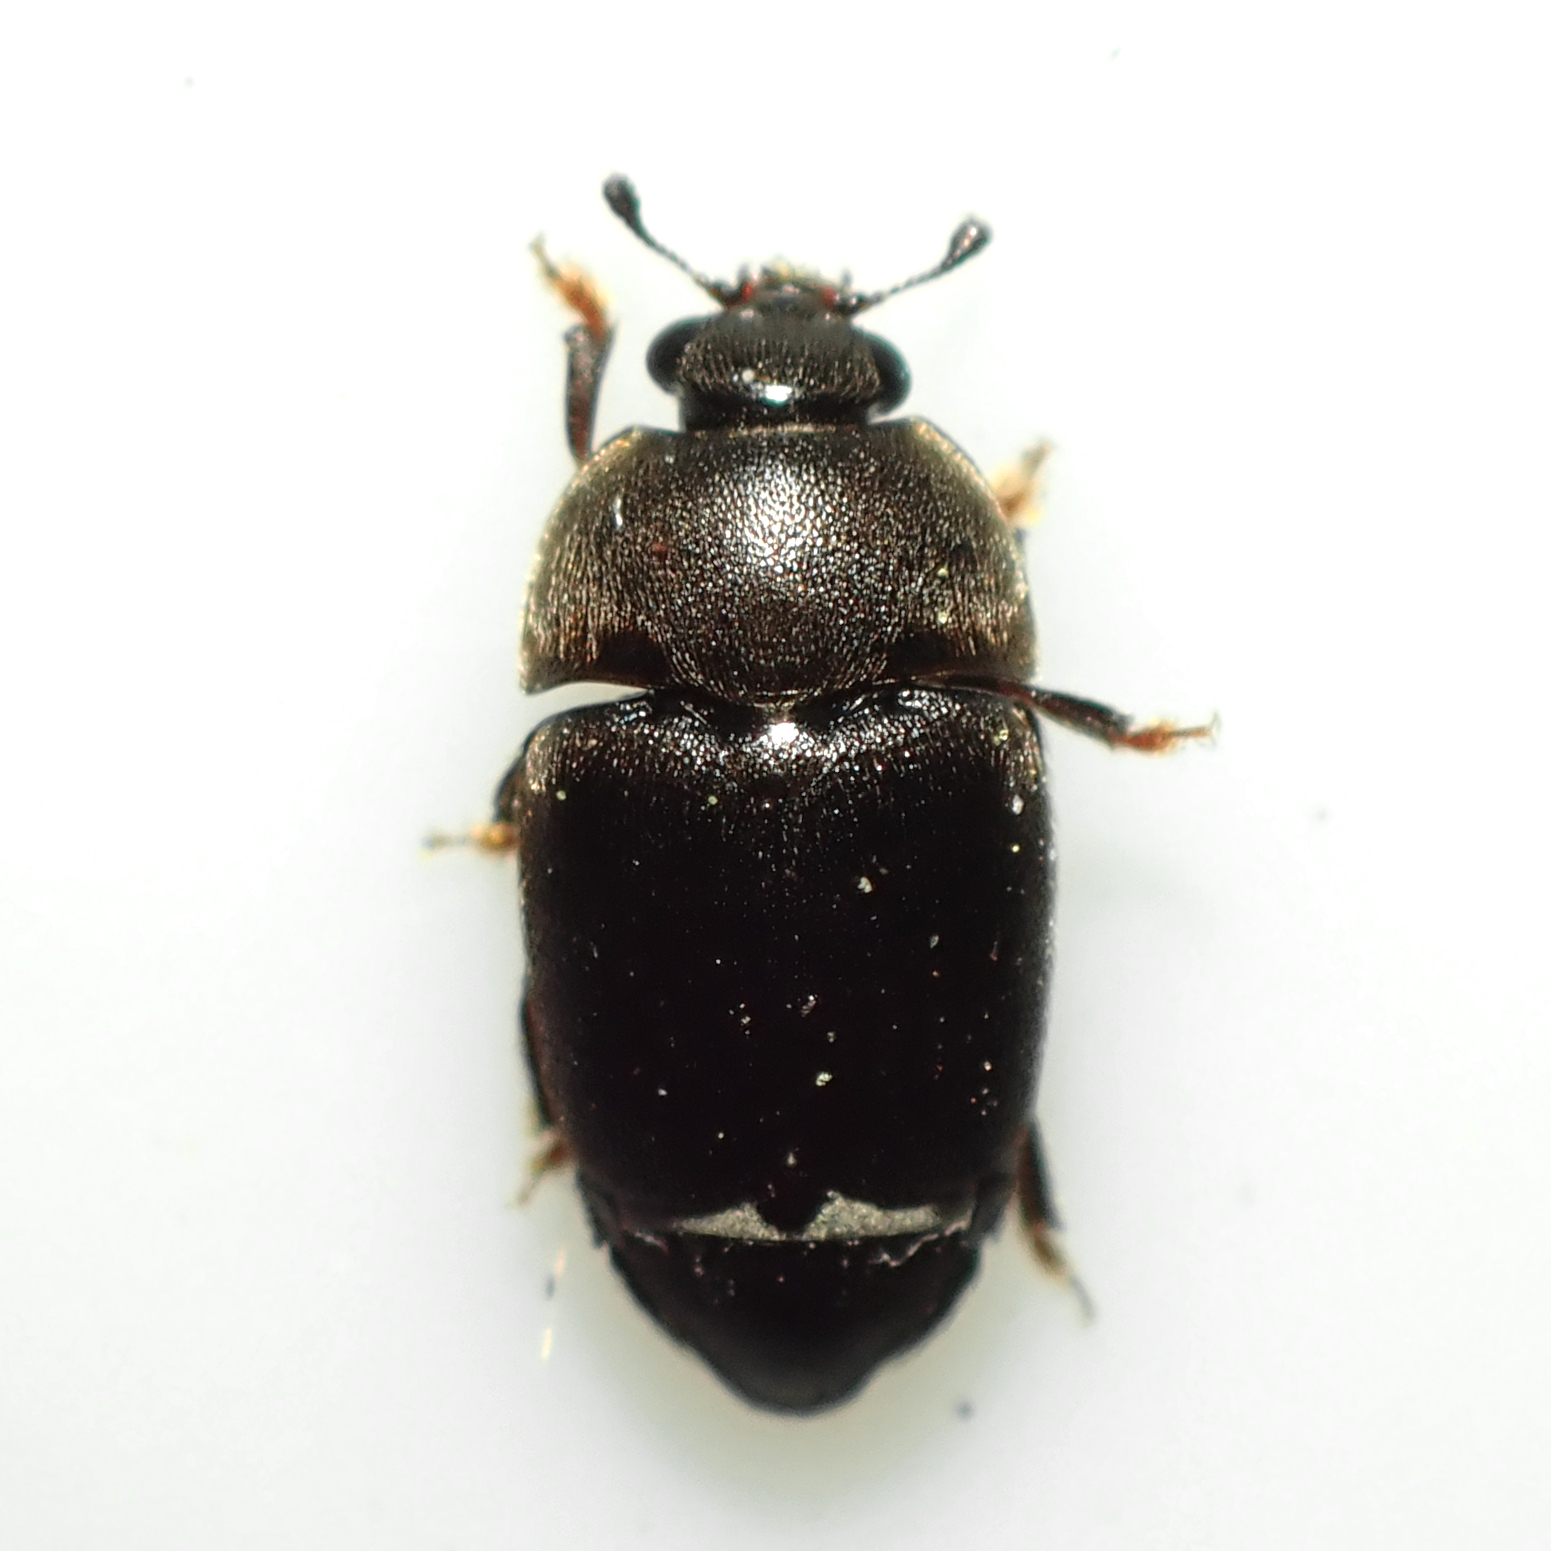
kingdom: Animalia
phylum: Arthropoda
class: Insecta
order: Coleoptera
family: Nitidulidae
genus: Aethina
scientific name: Aethina concolor
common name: Sap beetle
